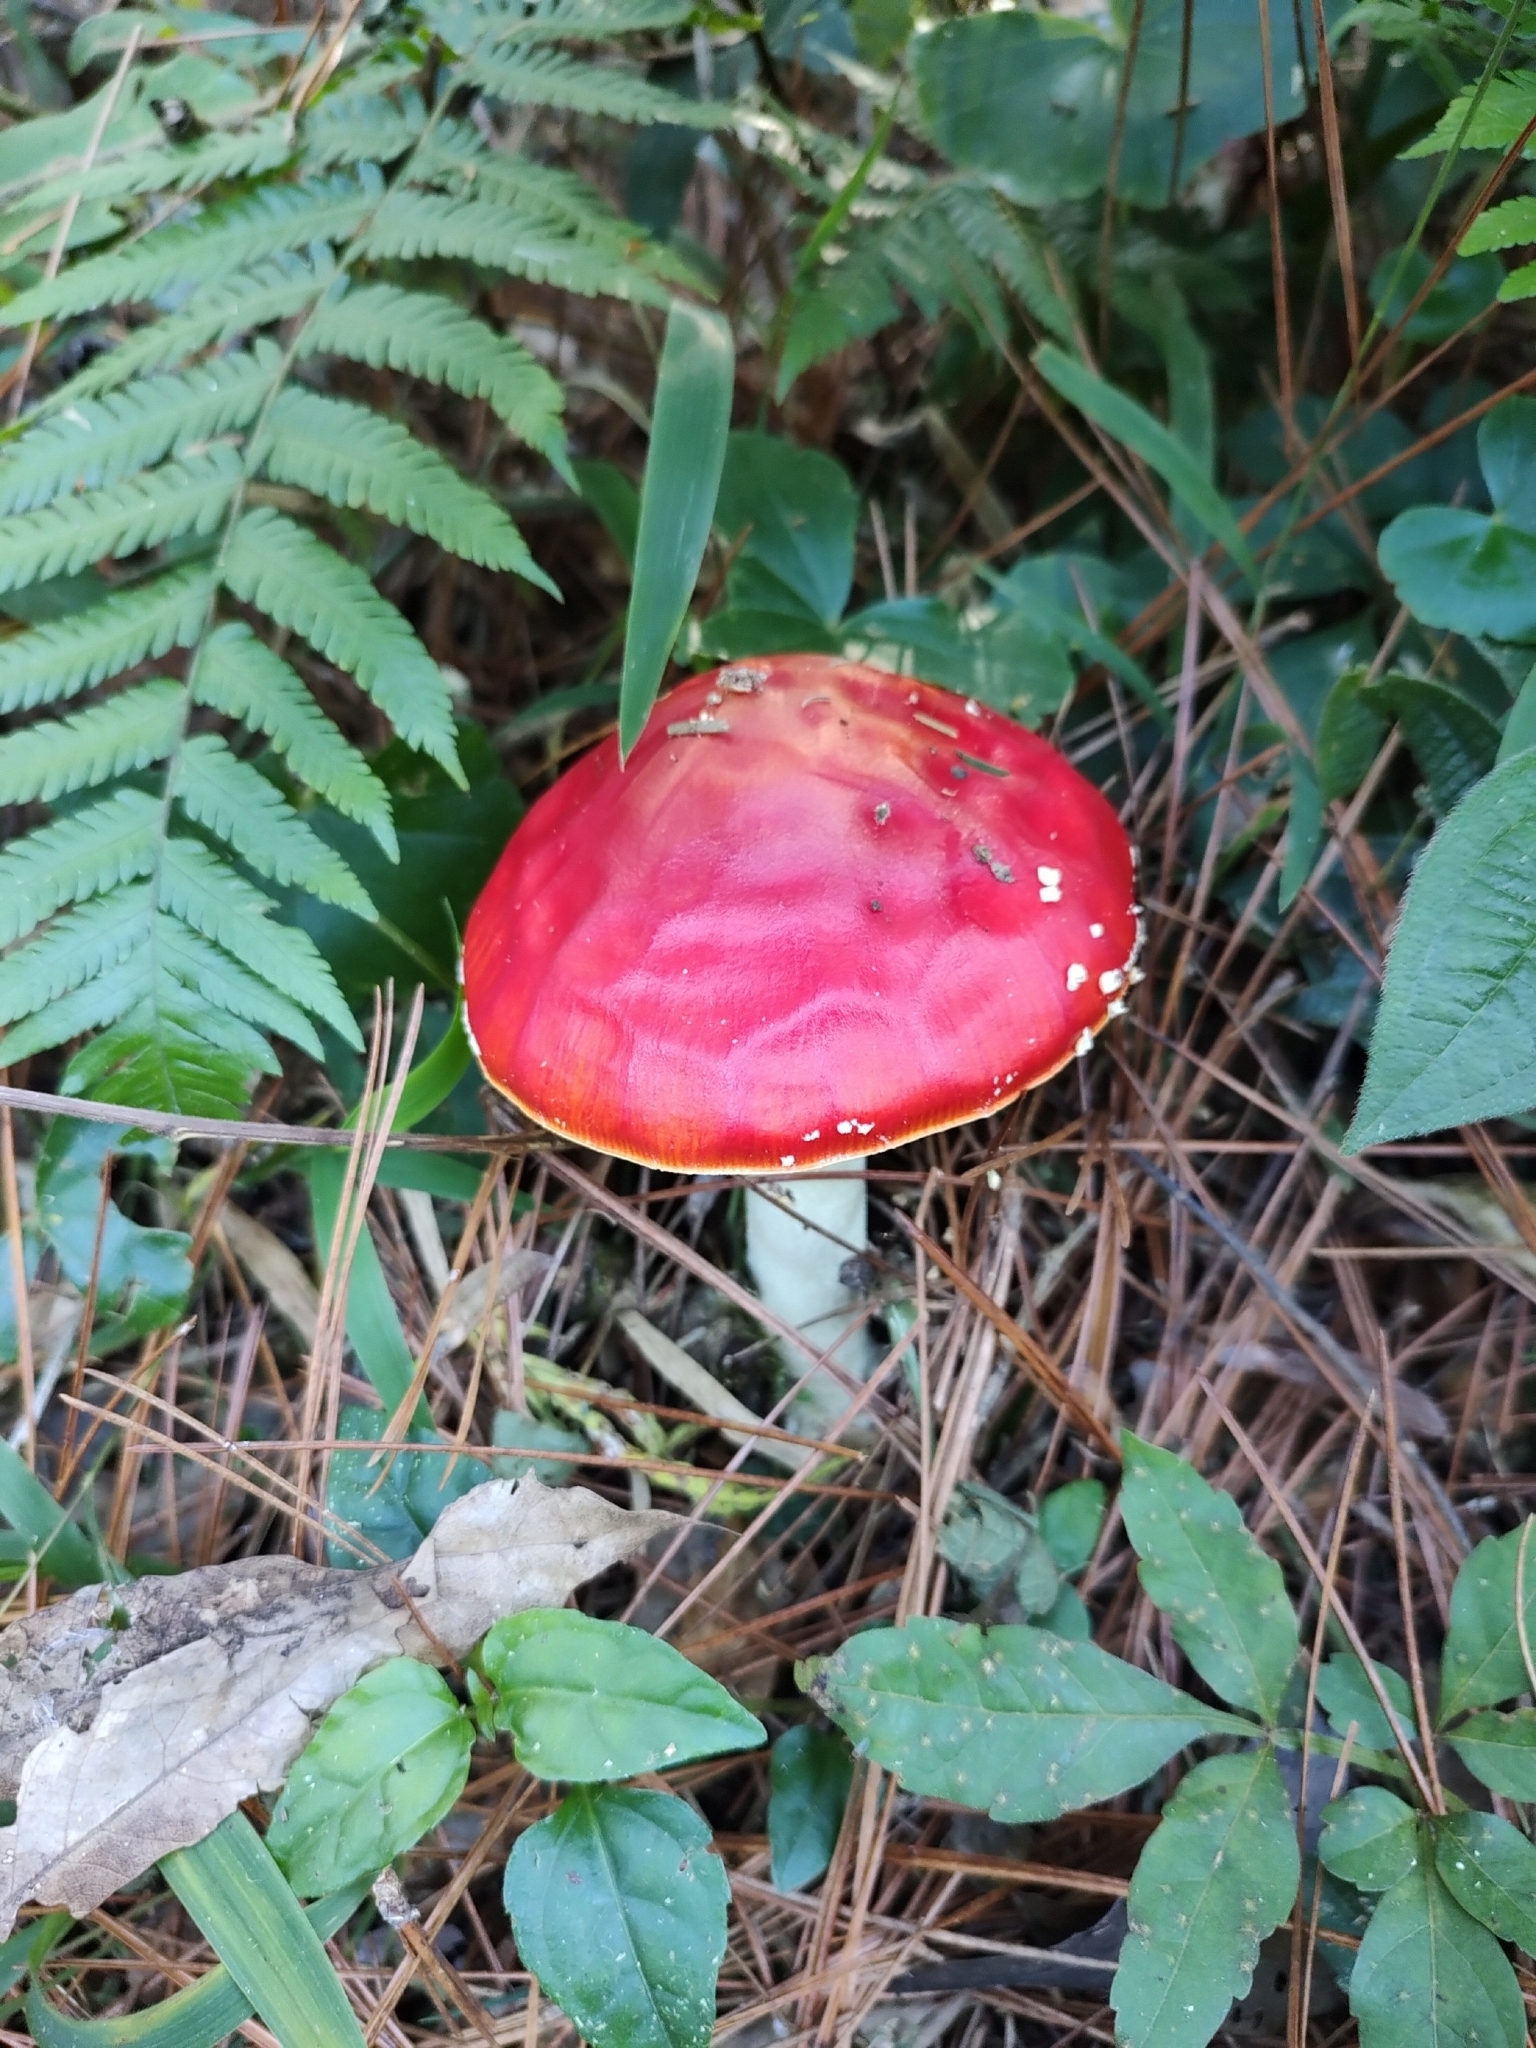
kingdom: Fungi
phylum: Basidiomycota
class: Agaricomycetes
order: Agaricales
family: Amanitaceae
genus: Amanita
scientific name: Amanita muscaria
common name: Fly agaric
